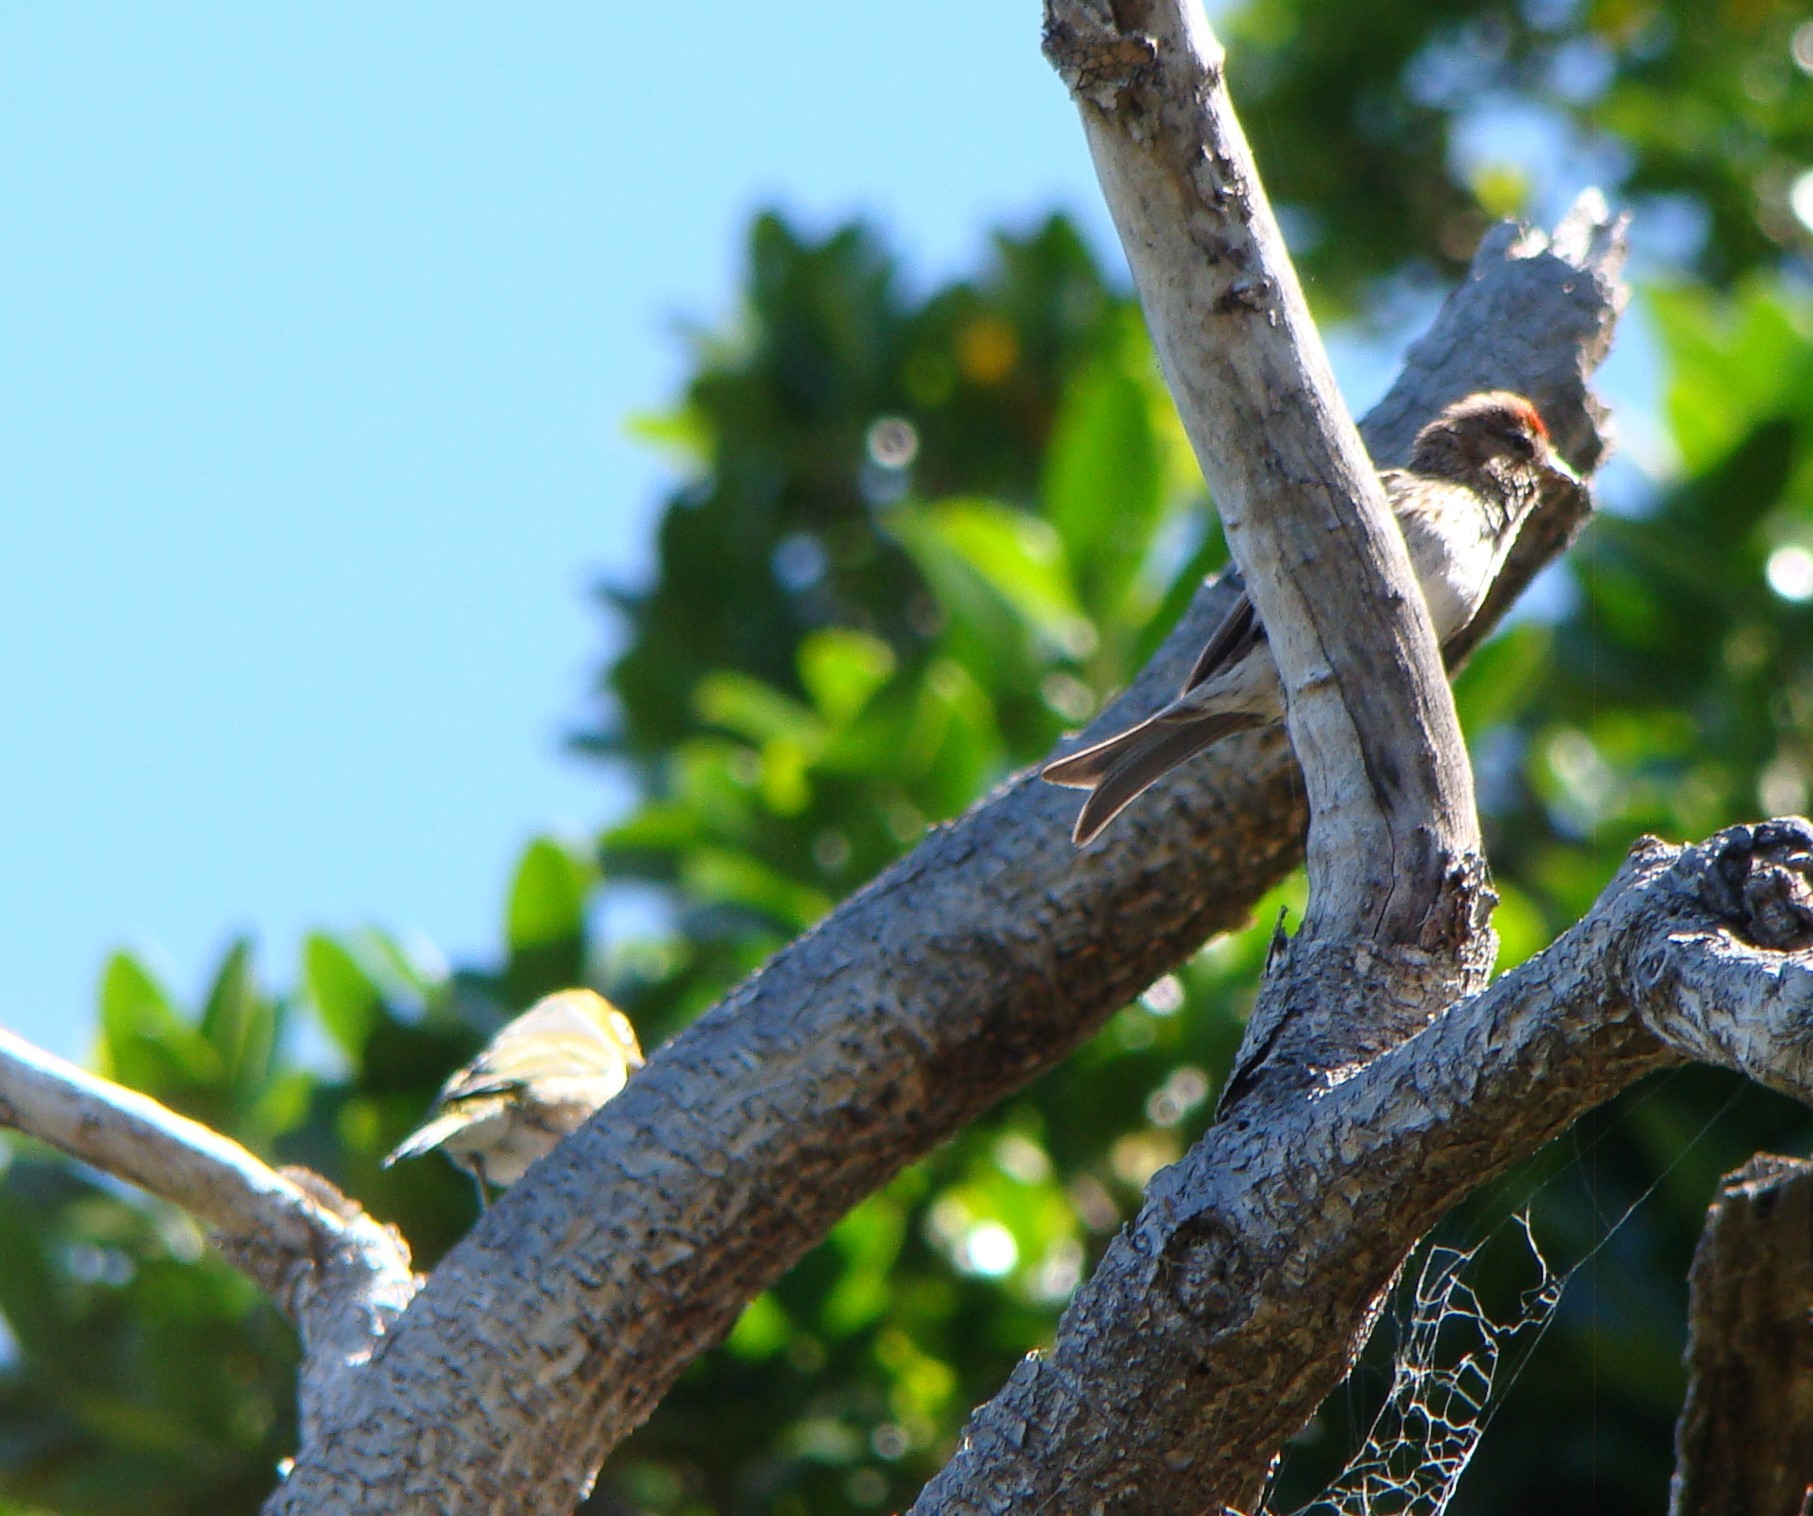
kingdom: Animalia
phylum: Chordata
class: Aves
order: Passeriformes
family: Fringillidae
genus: Acanthis
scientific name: Acanthis flammea
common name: Common redpoll
